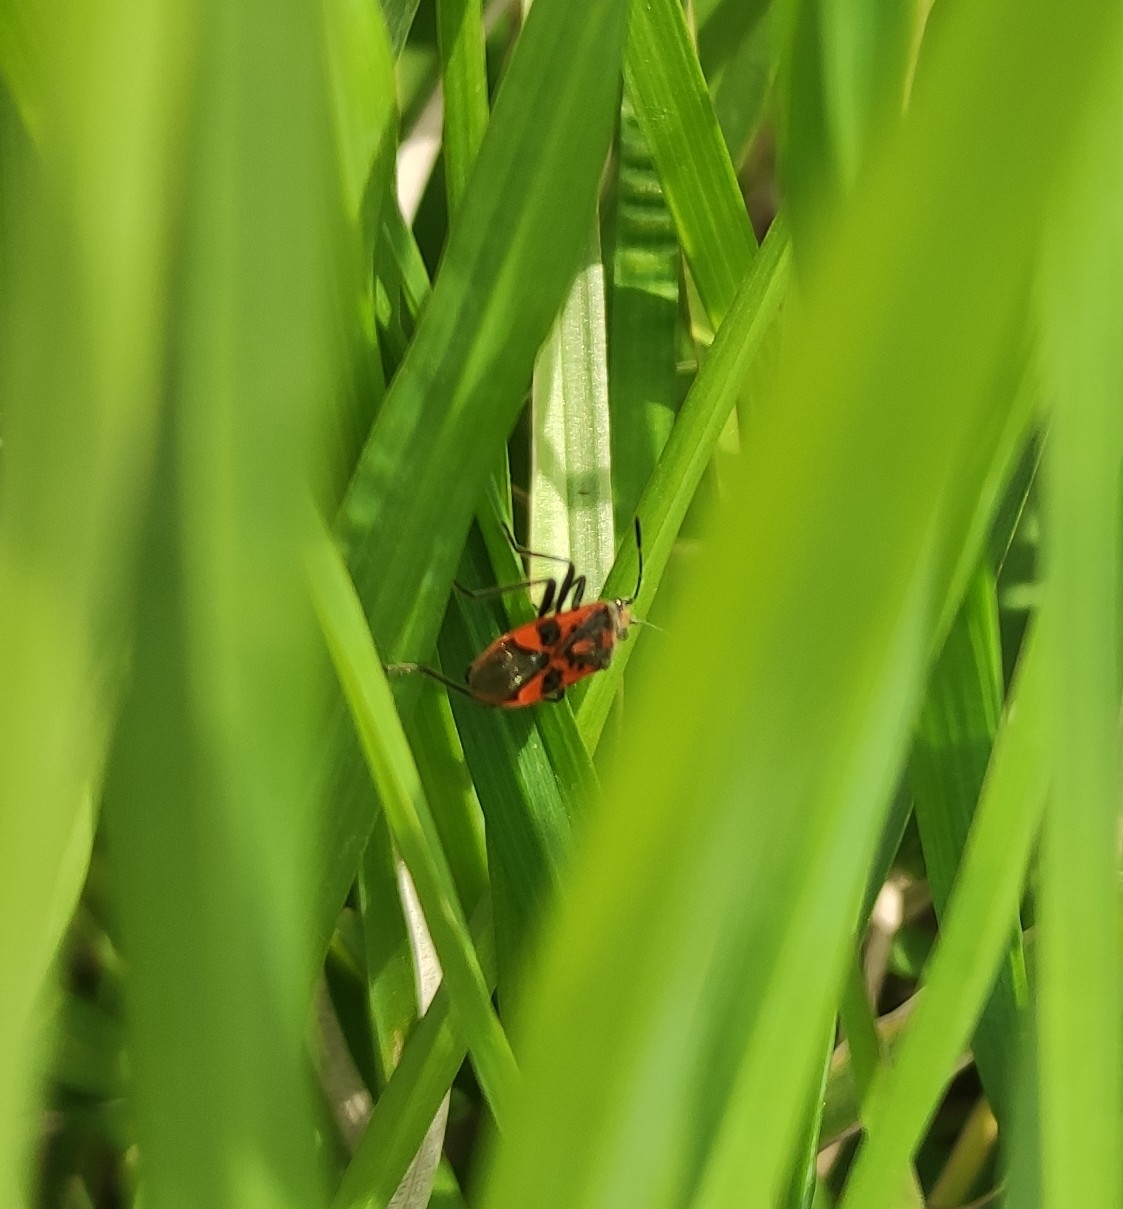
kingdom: Animalia
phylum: Arthropoda
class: Insecta
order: Hemiptera
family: Rhopalidae
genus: Corizus
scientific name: Corizus hyoscyami
